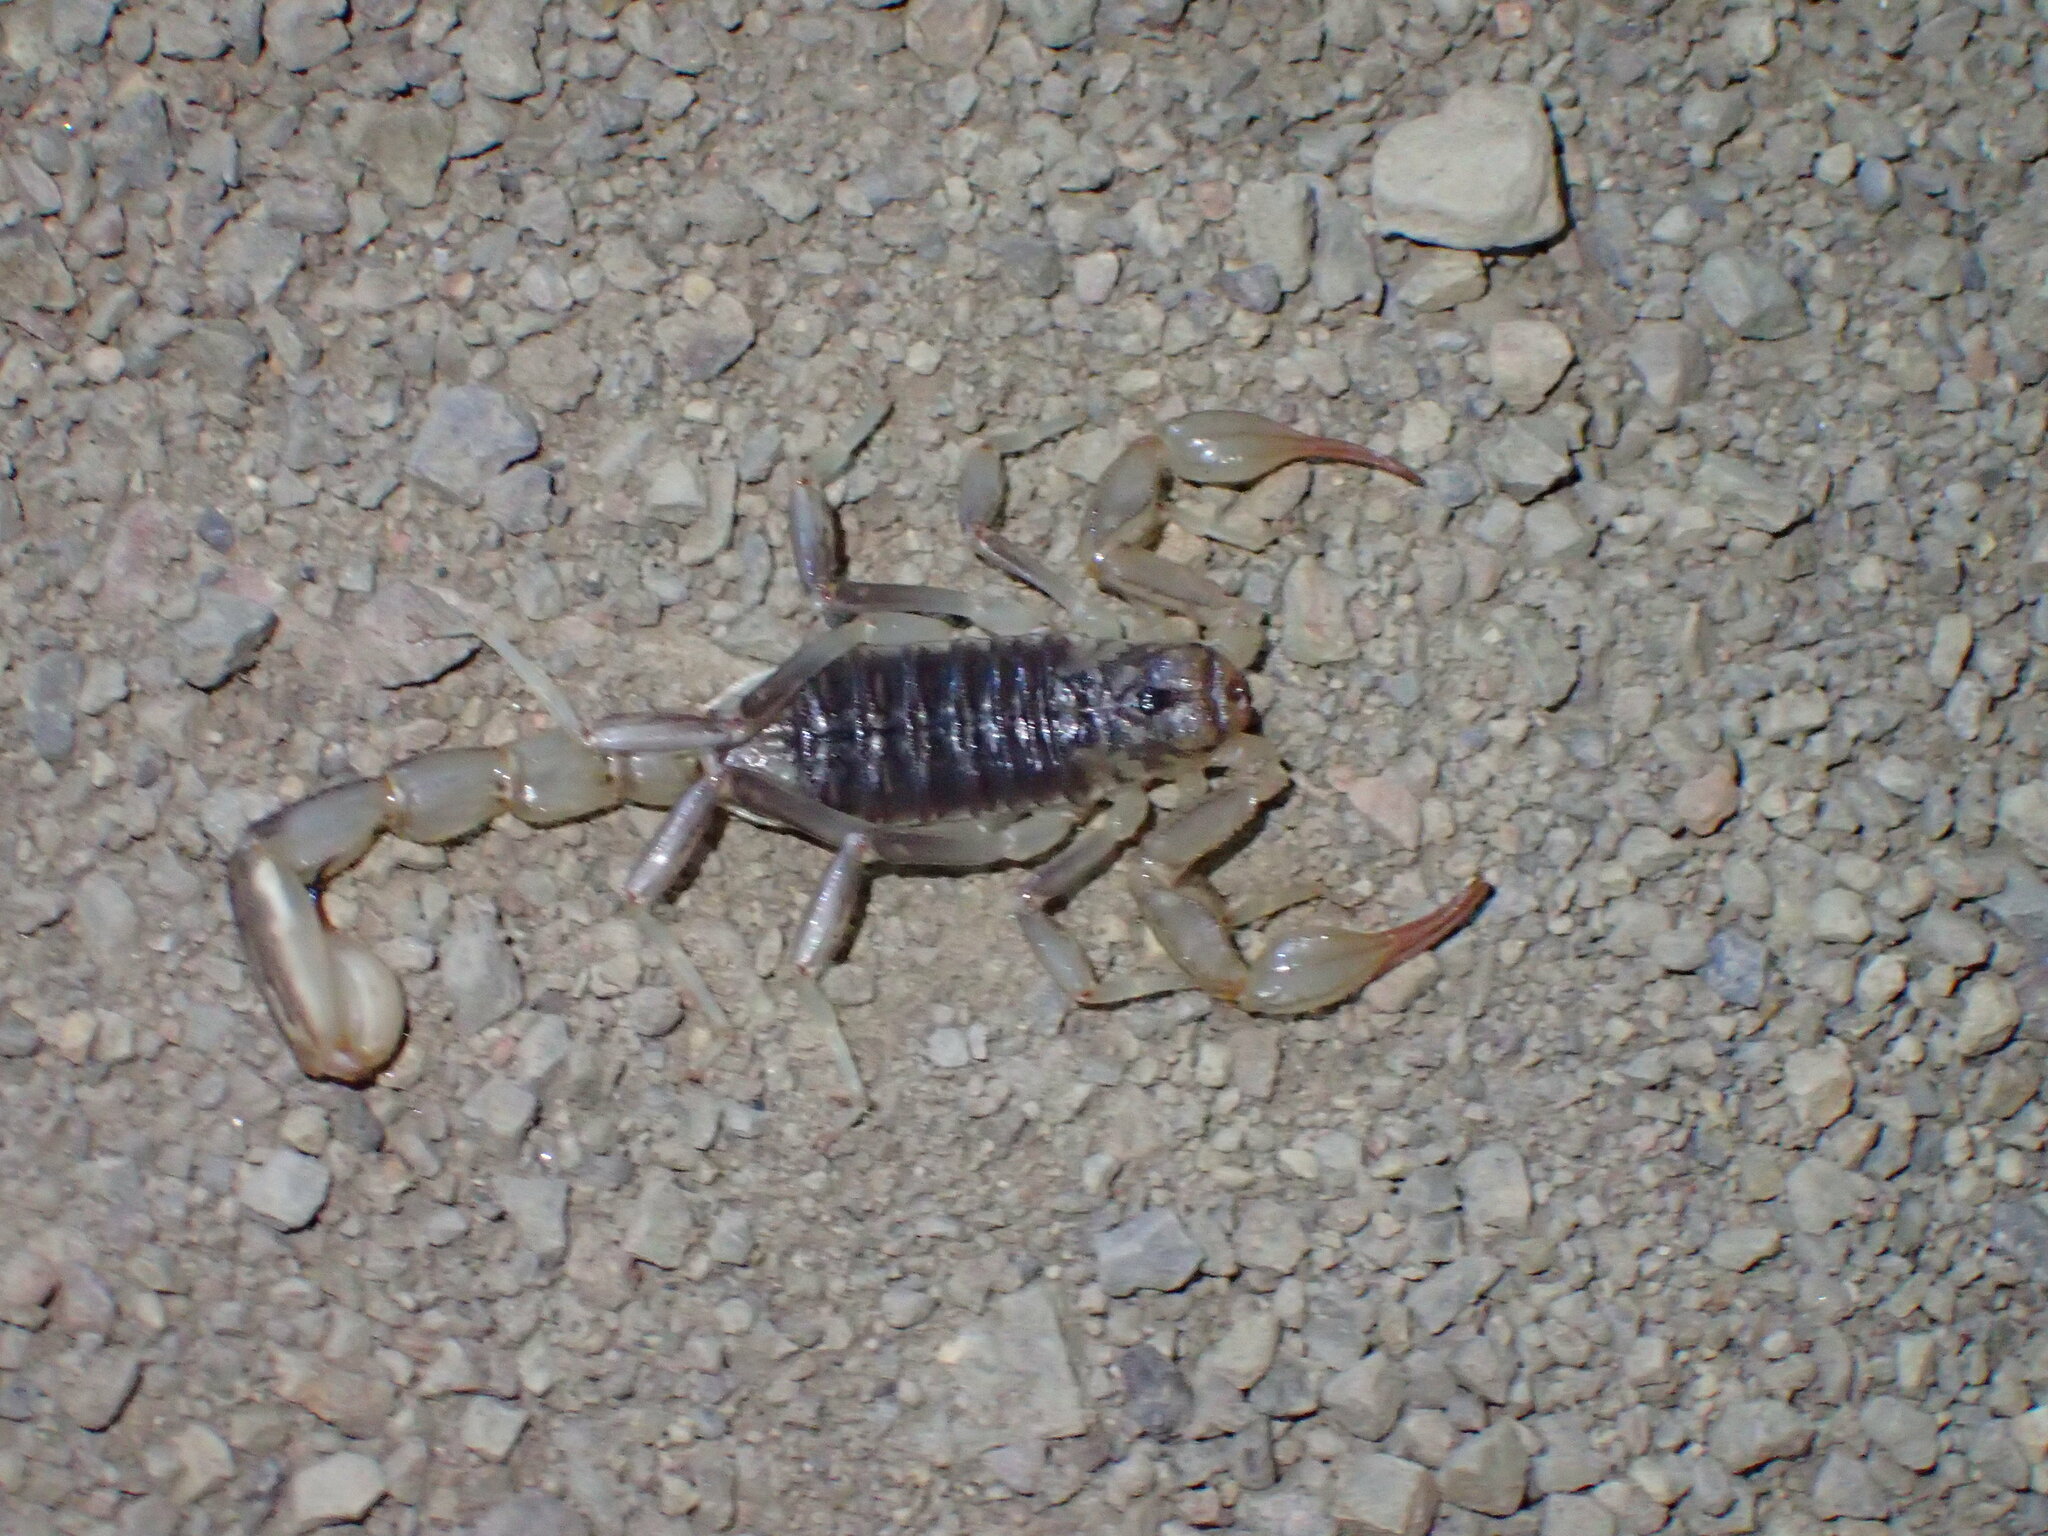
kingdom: Animalia
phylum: Arthropoda
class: Arachnida
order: Scorpiones
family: Vaejovidae
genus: Paruroctonus
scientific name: Paruroctonus silvestrii
